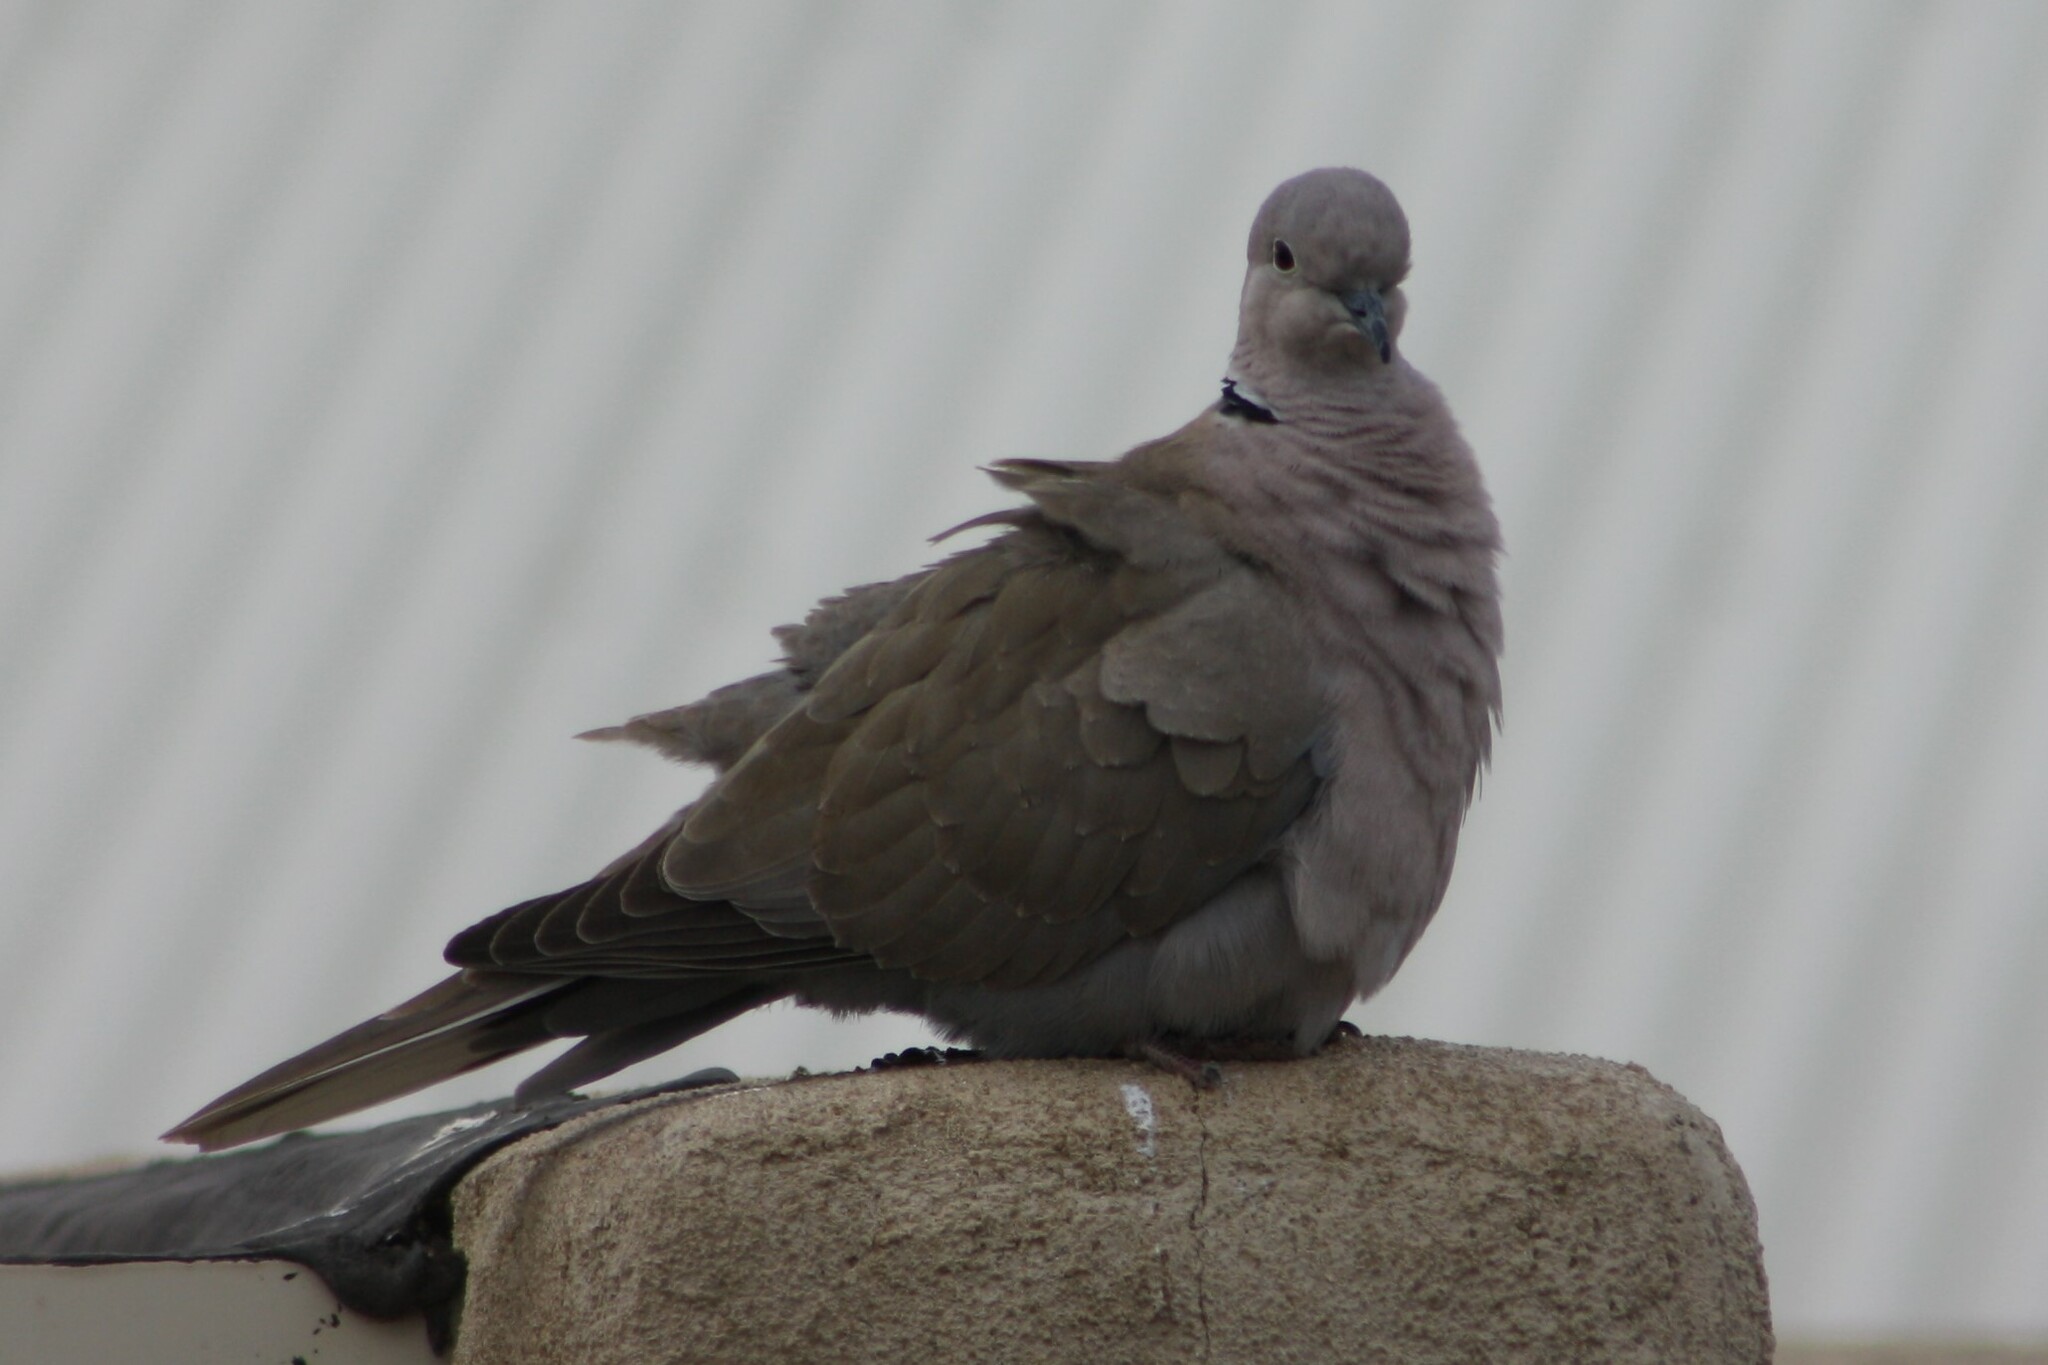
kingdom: Animalia
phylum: Chordata
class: Aves
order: Columbiformes
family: Columbidae
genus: Streptopelia
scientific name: Streptopelia decaocto
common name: Eurasian collared dove
